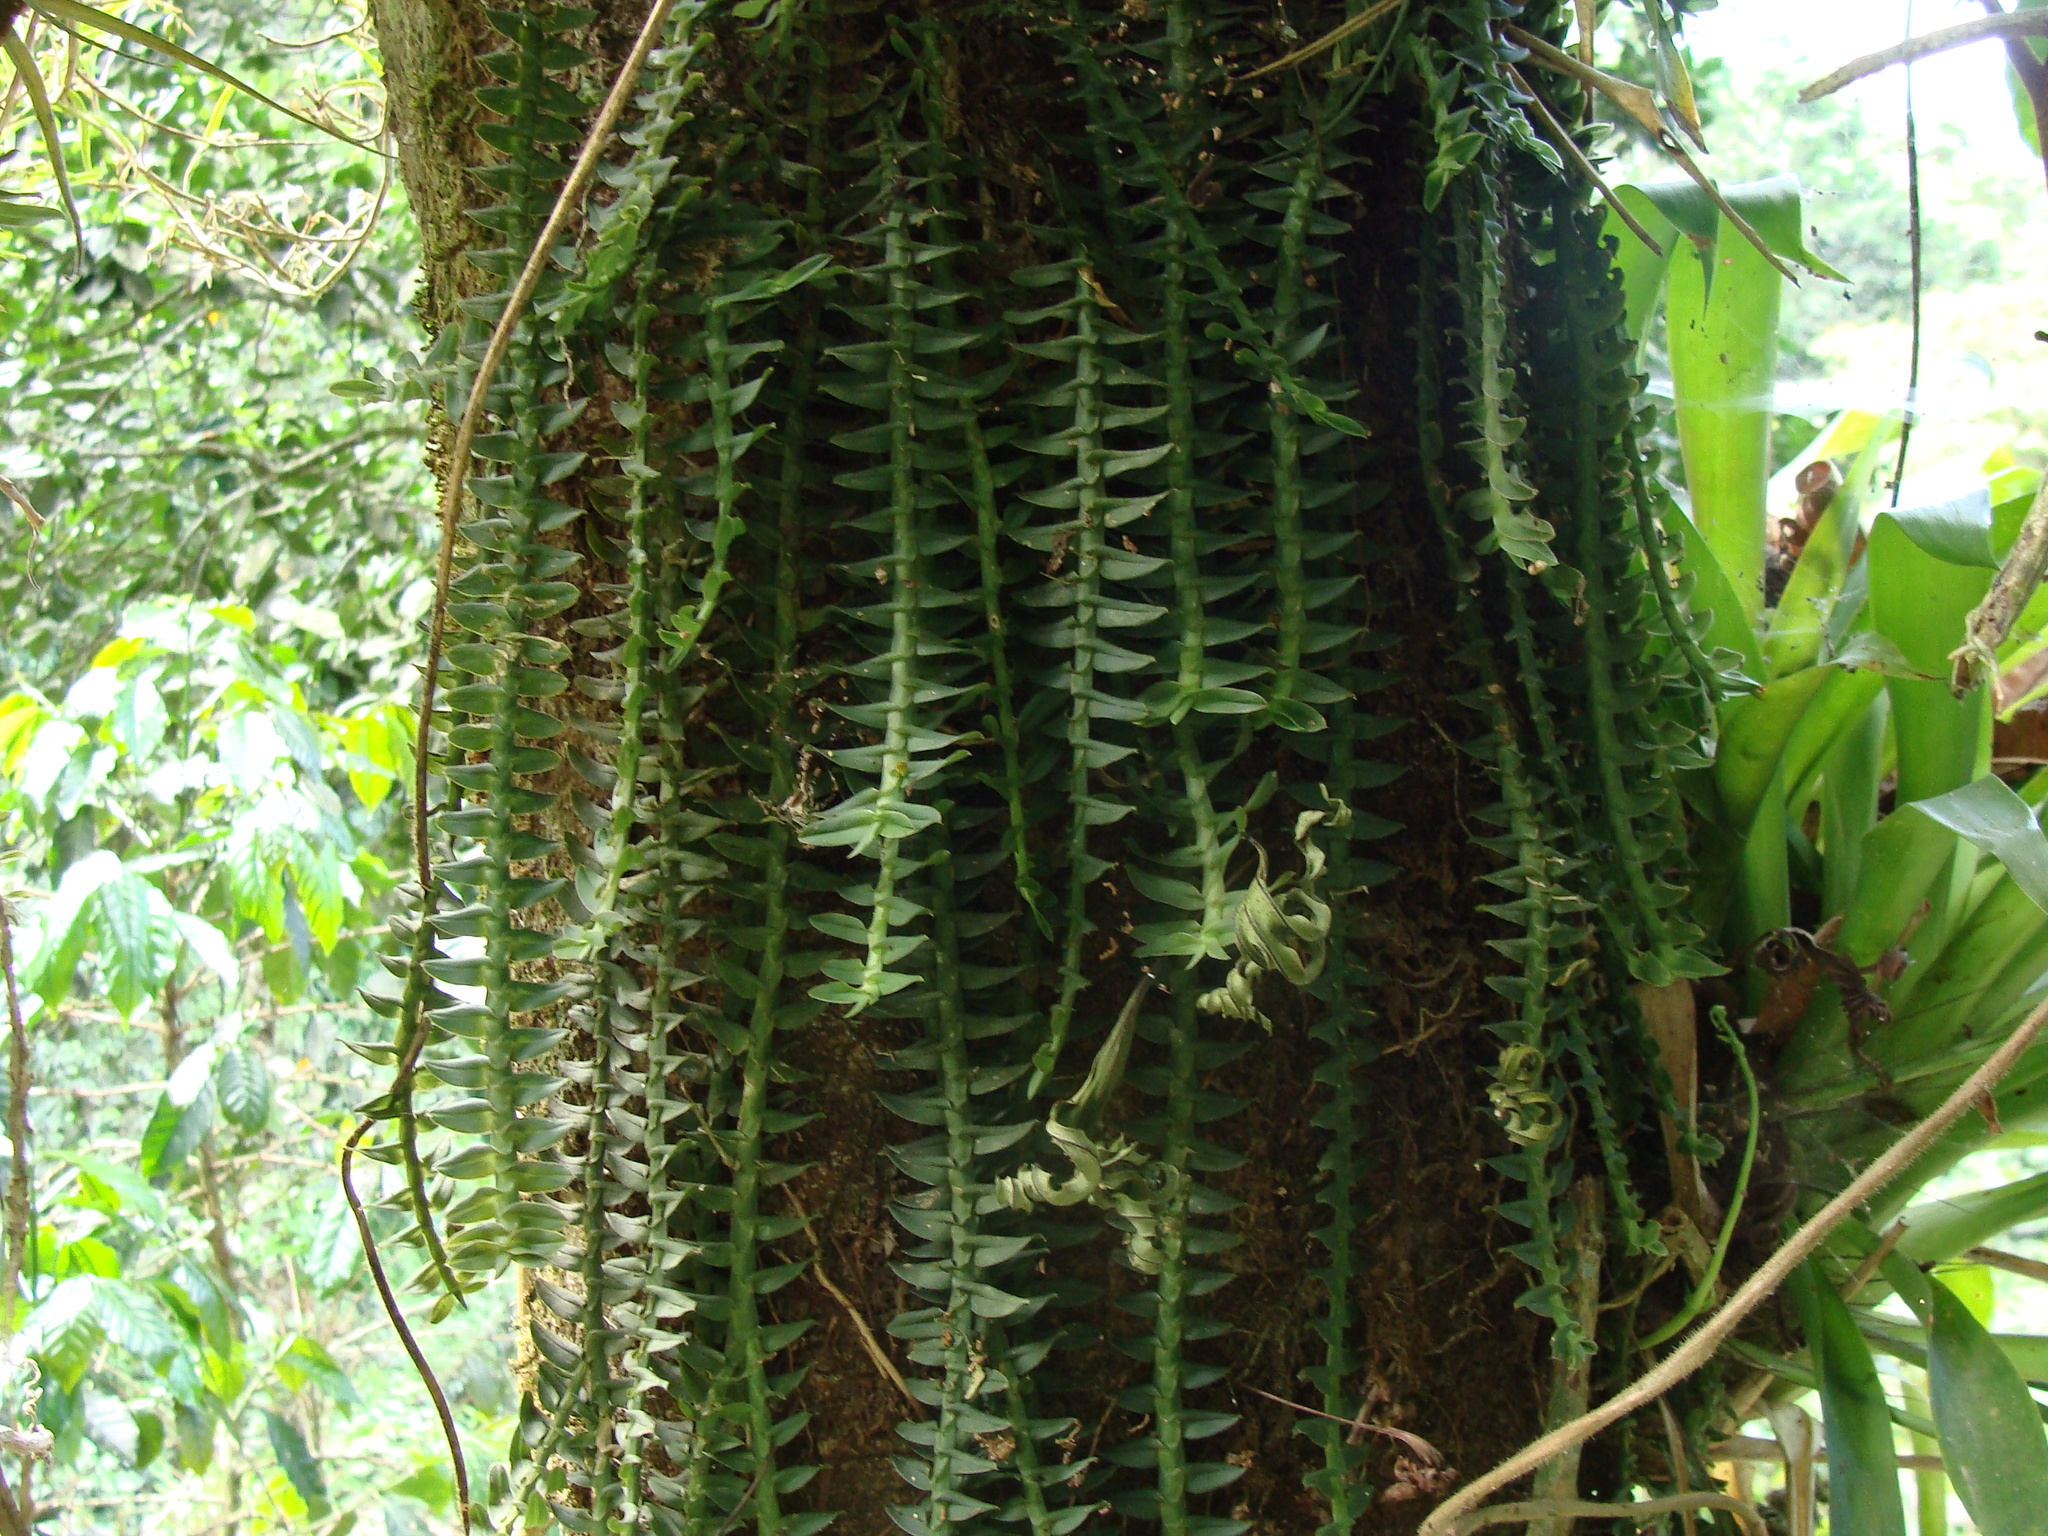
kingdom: Plantae
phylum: Tracheophyta
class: Liliopsida
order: Asparagales
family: Orchidaceae
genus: Dichaea
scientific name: Dichaea muricatoides
